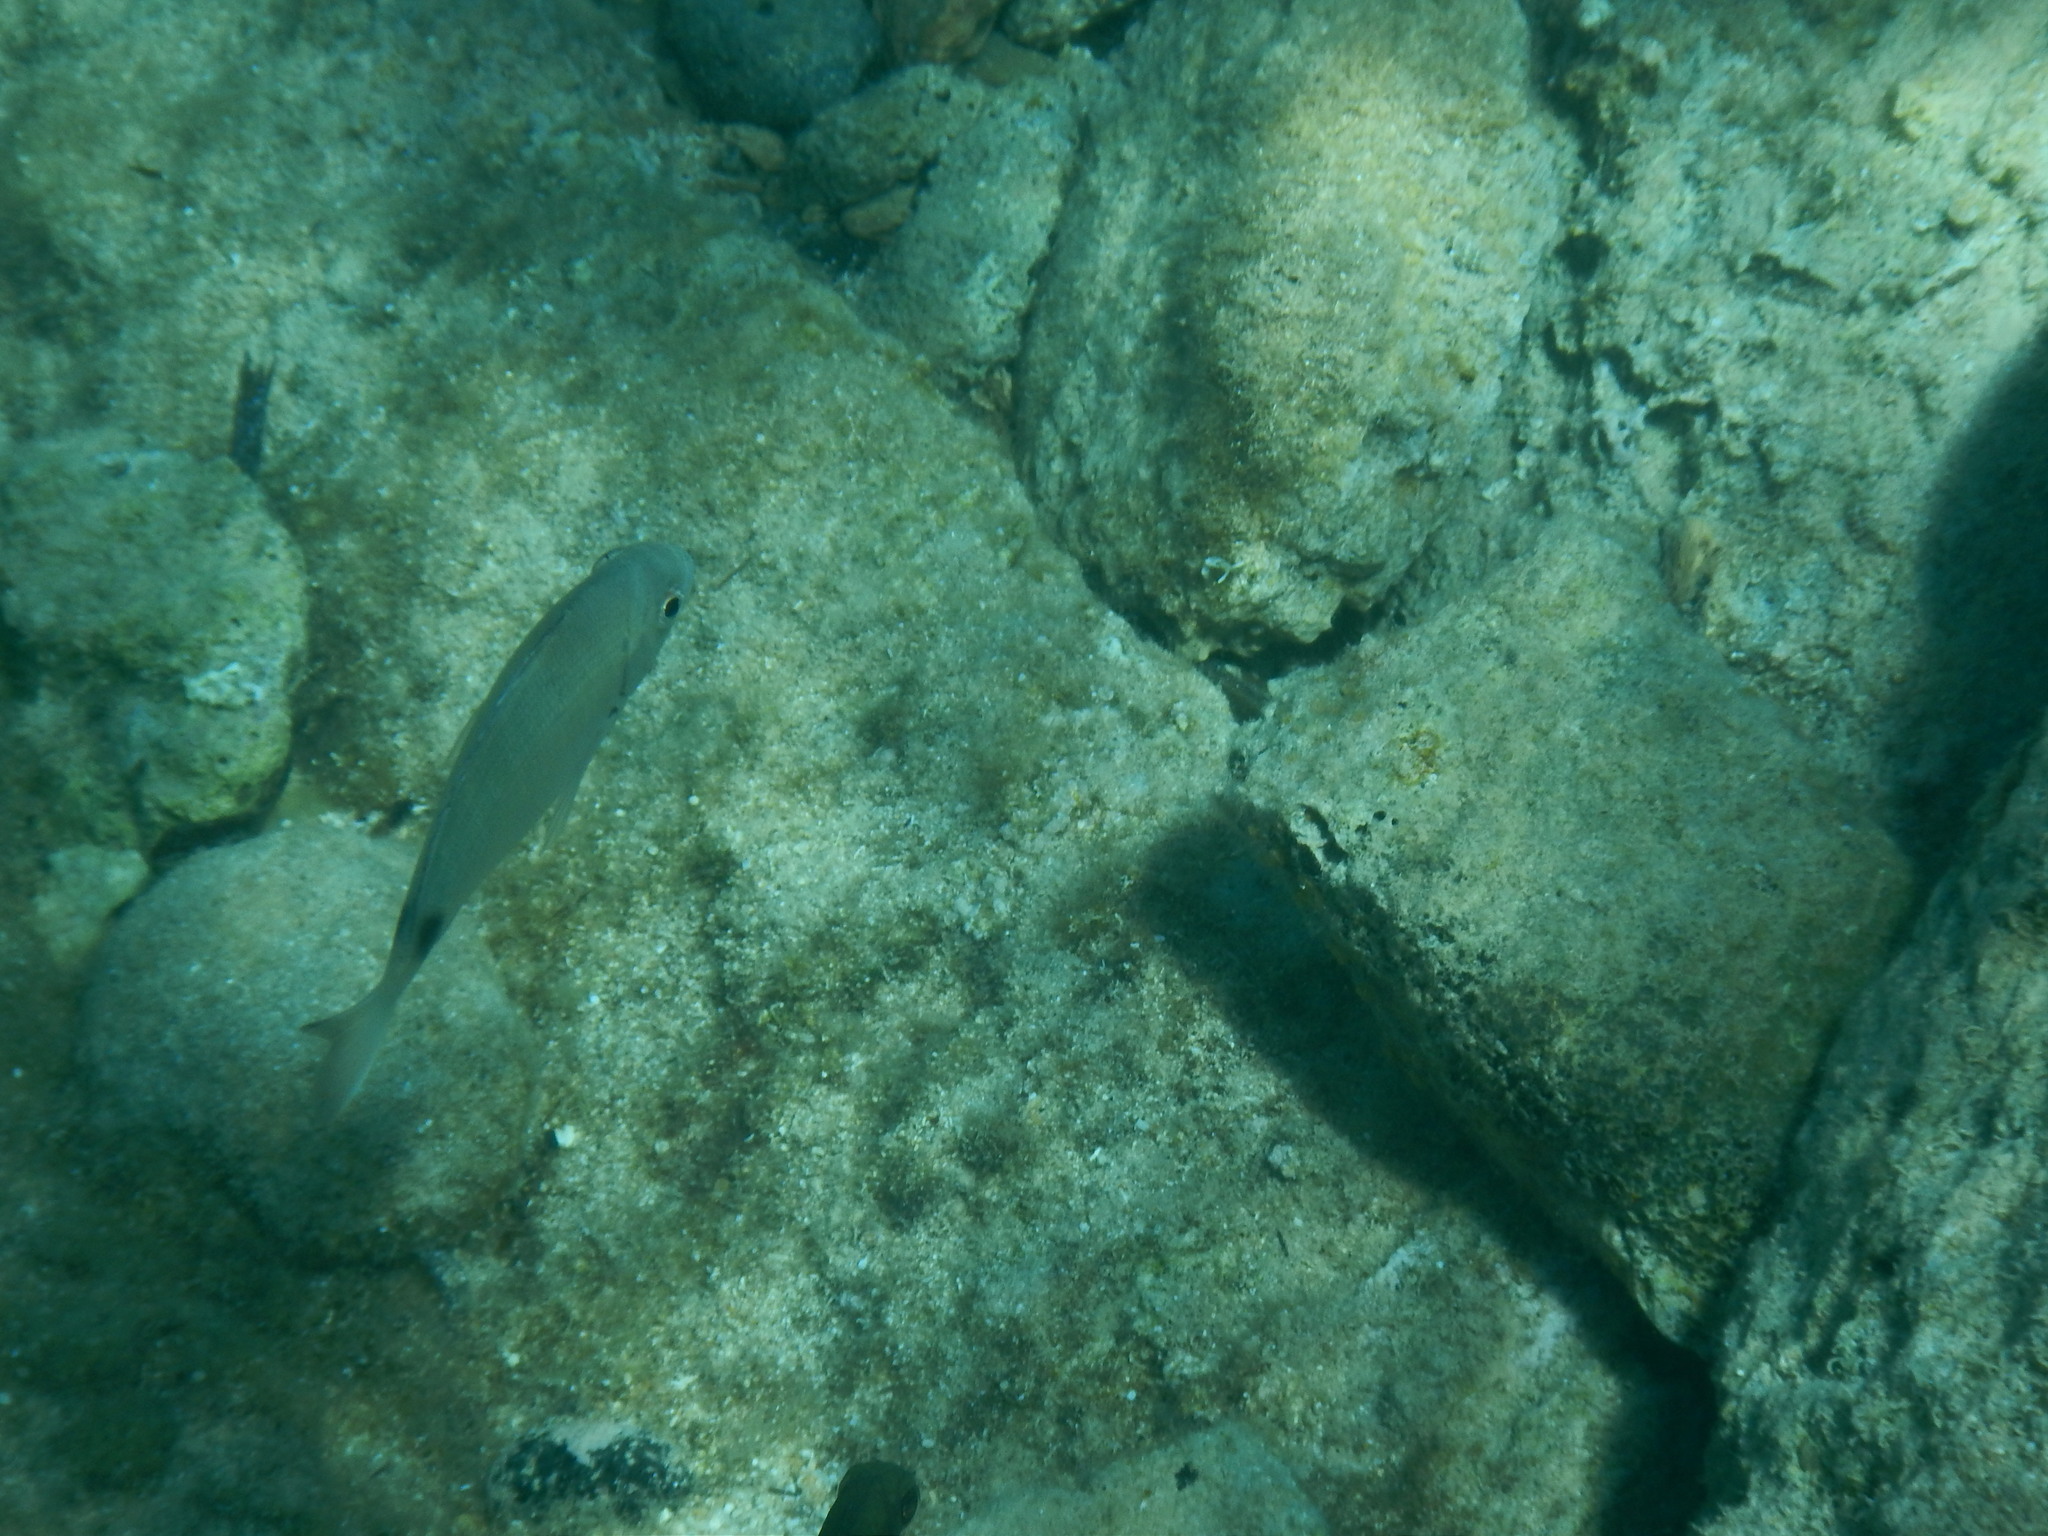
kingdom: Animalia
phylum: Chordata
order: Perciformes
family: Sparidae
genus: Diplodus
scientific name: Diplodus
